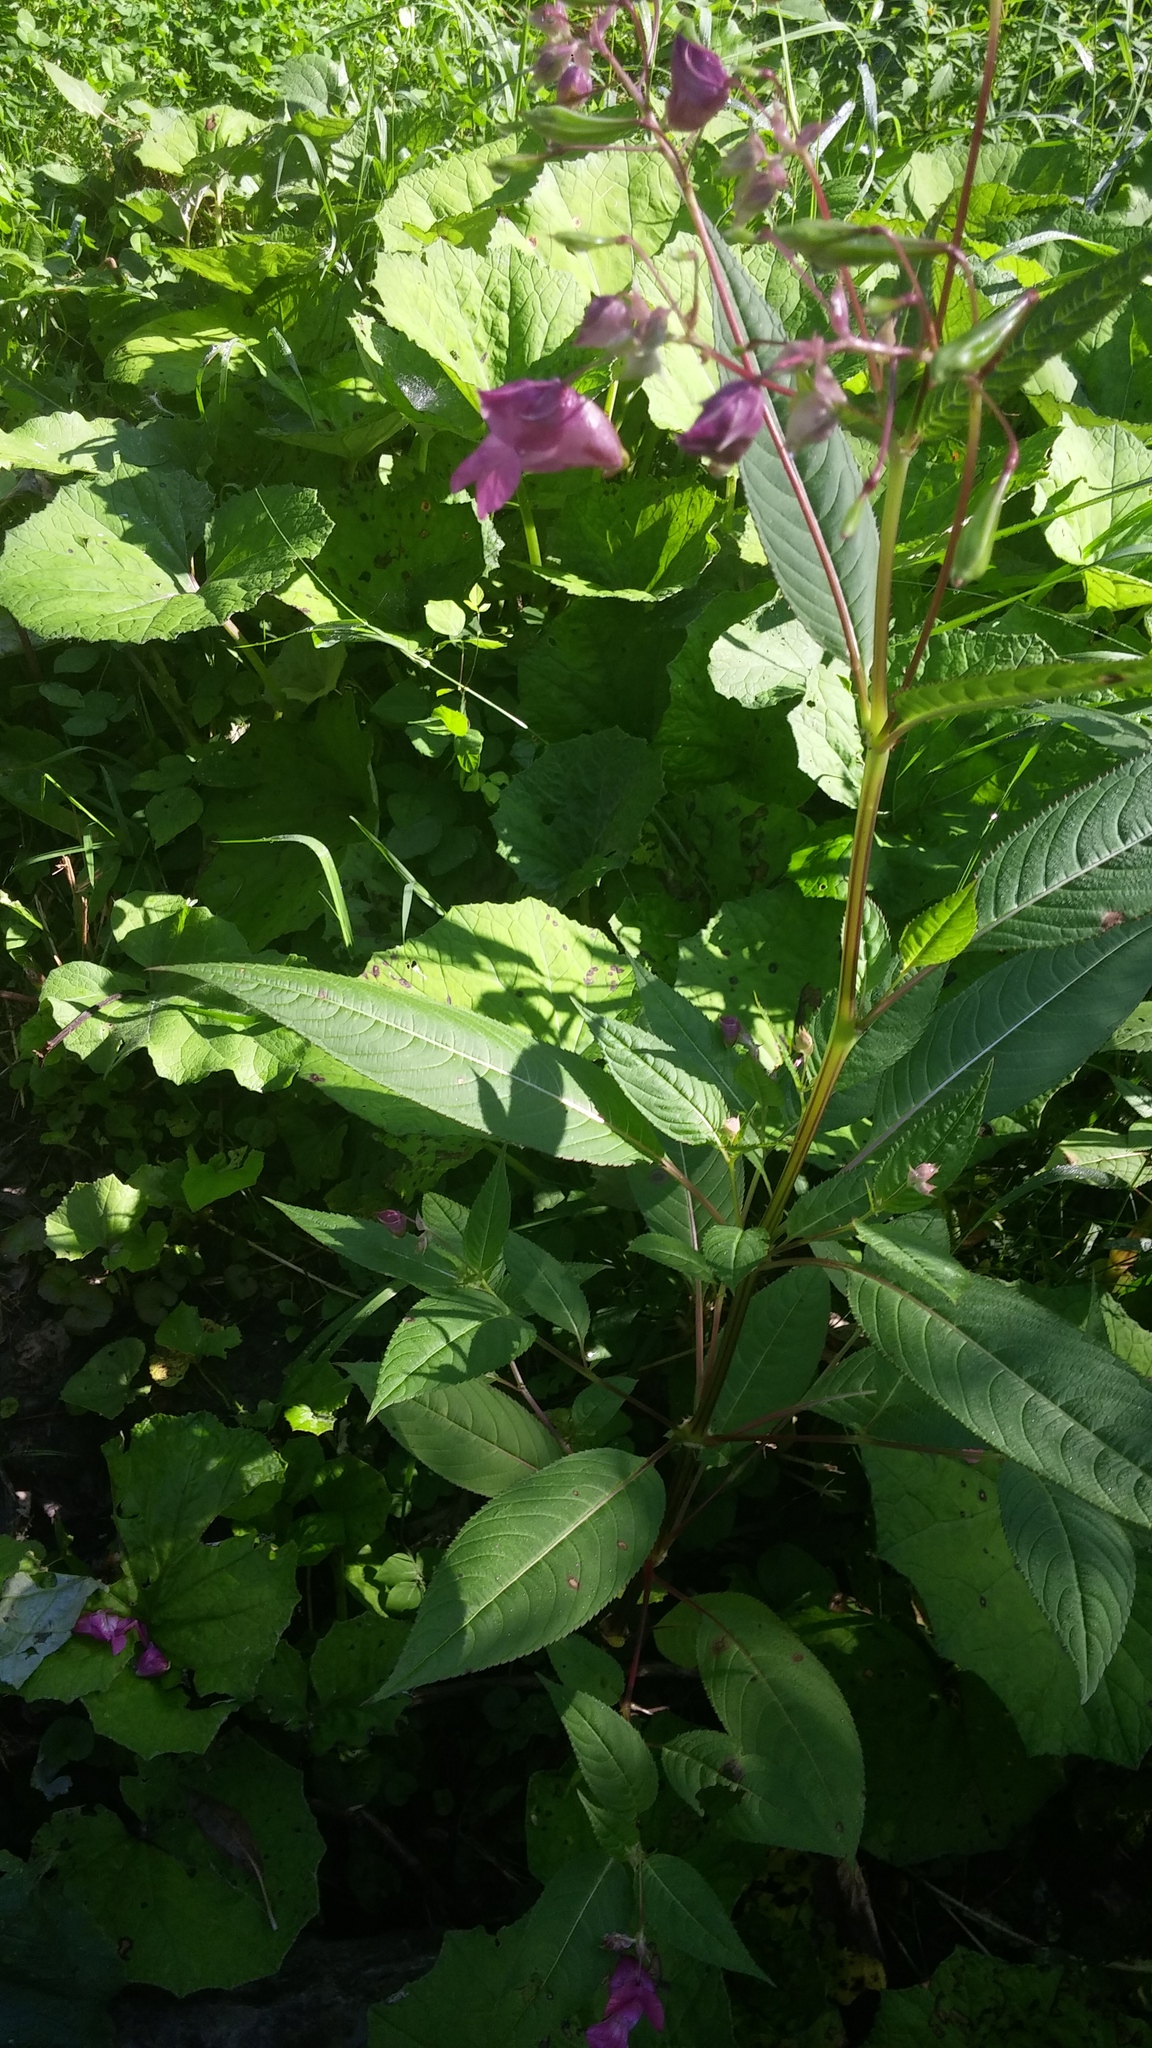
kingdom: Plantae
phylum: Tracheophyta
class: Magnoliopsida
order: Ericales
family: Balsaminaceae
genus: Impatiens
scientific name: Impatiens glandulifera
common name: Himalayan balsam
